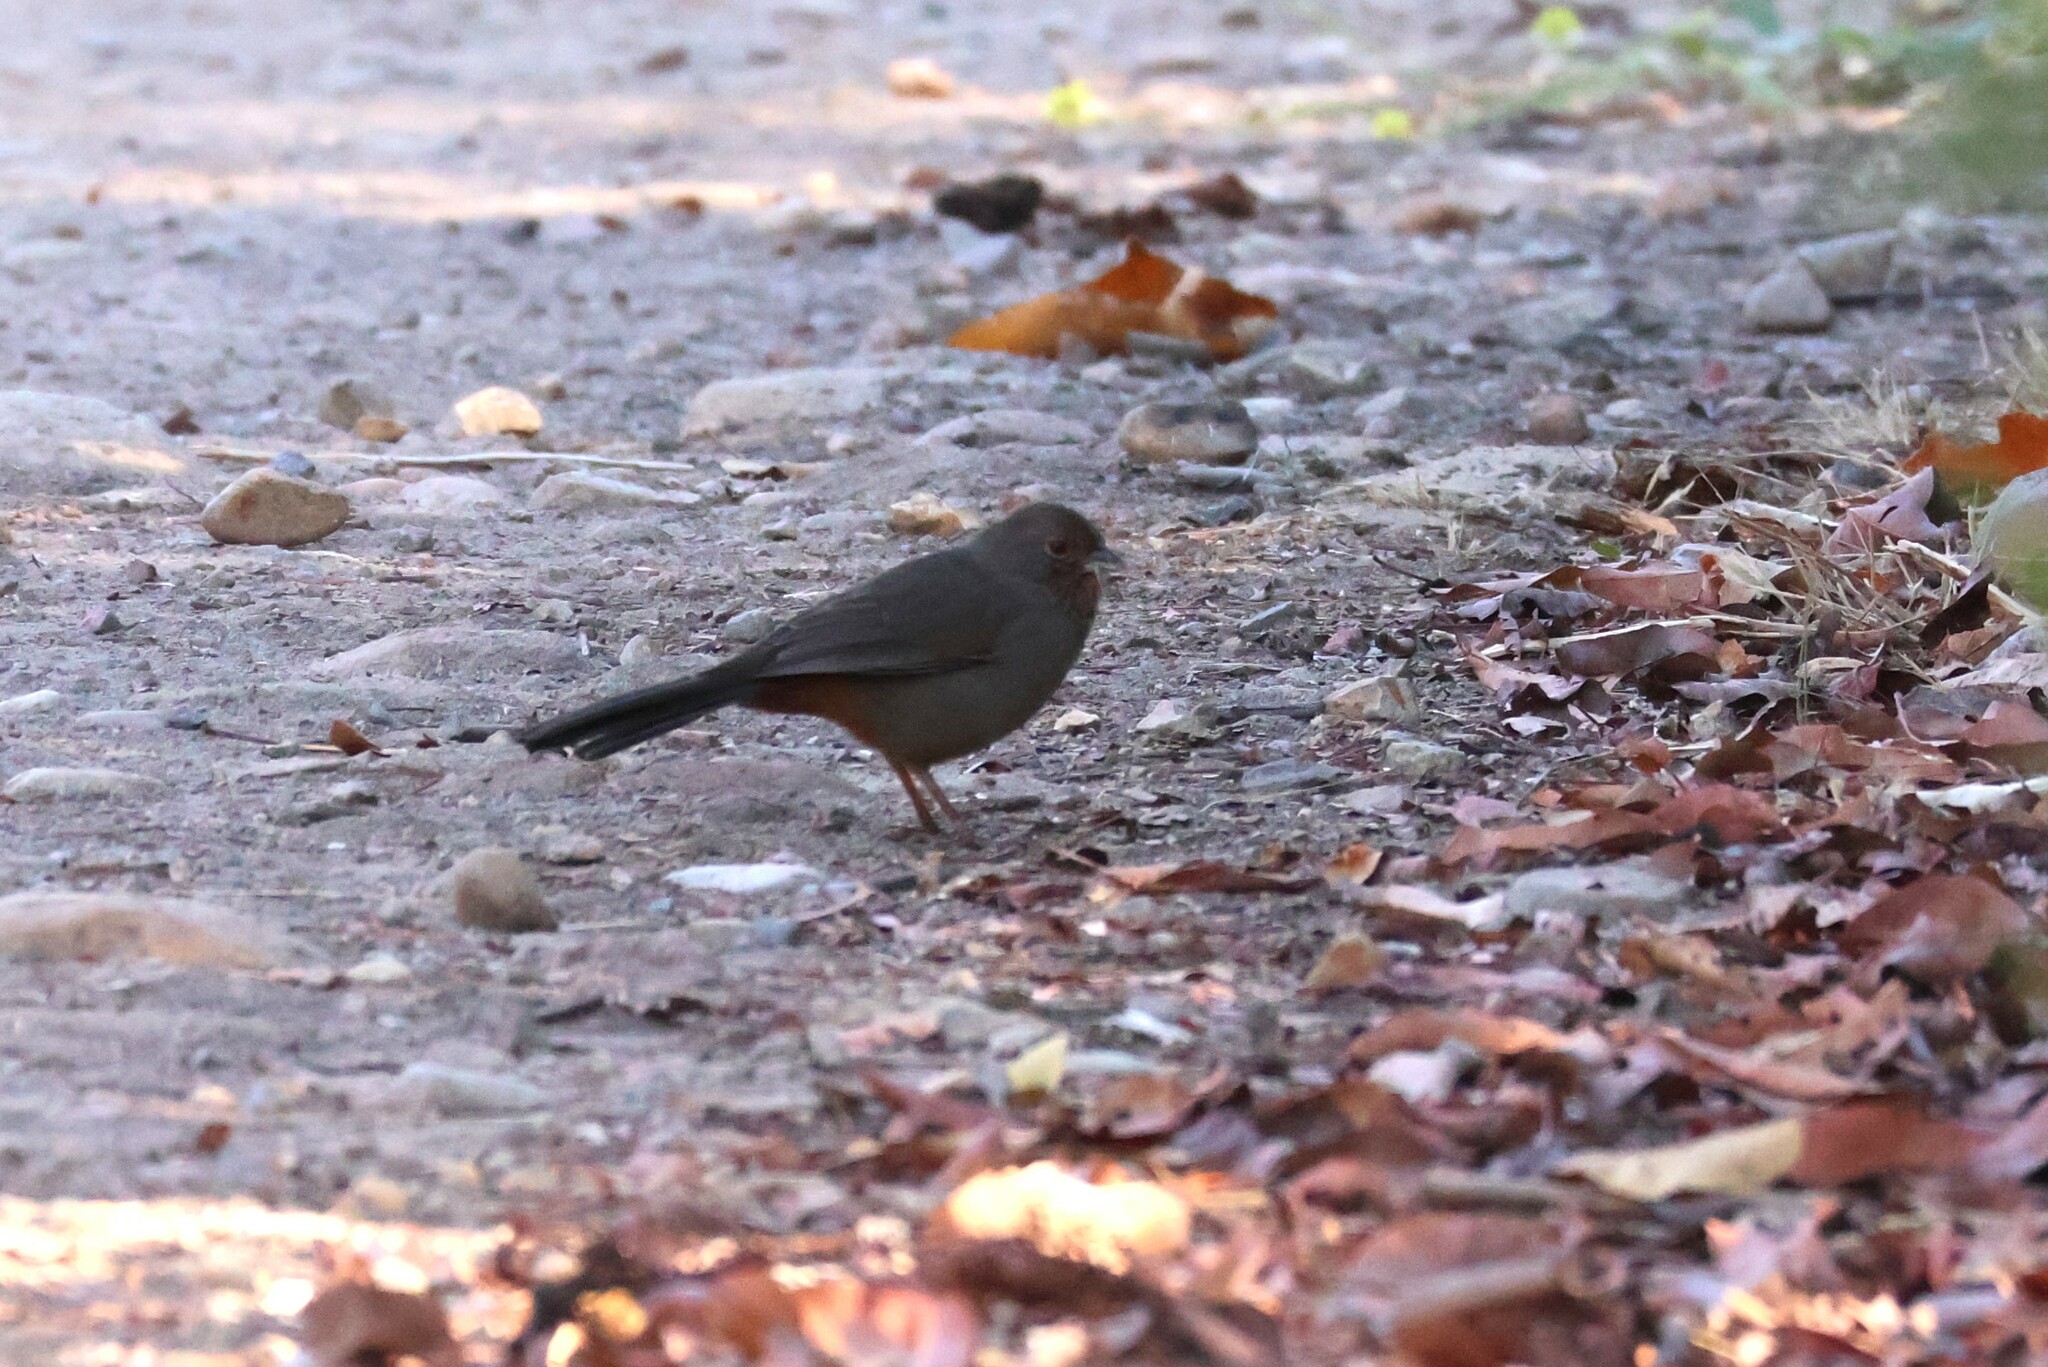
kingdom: Animalia
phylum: Chordata
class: Aves
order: Passeriformes
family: Passerellidae
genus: Melozone
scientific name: Melozone crissalis
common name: California towhee
